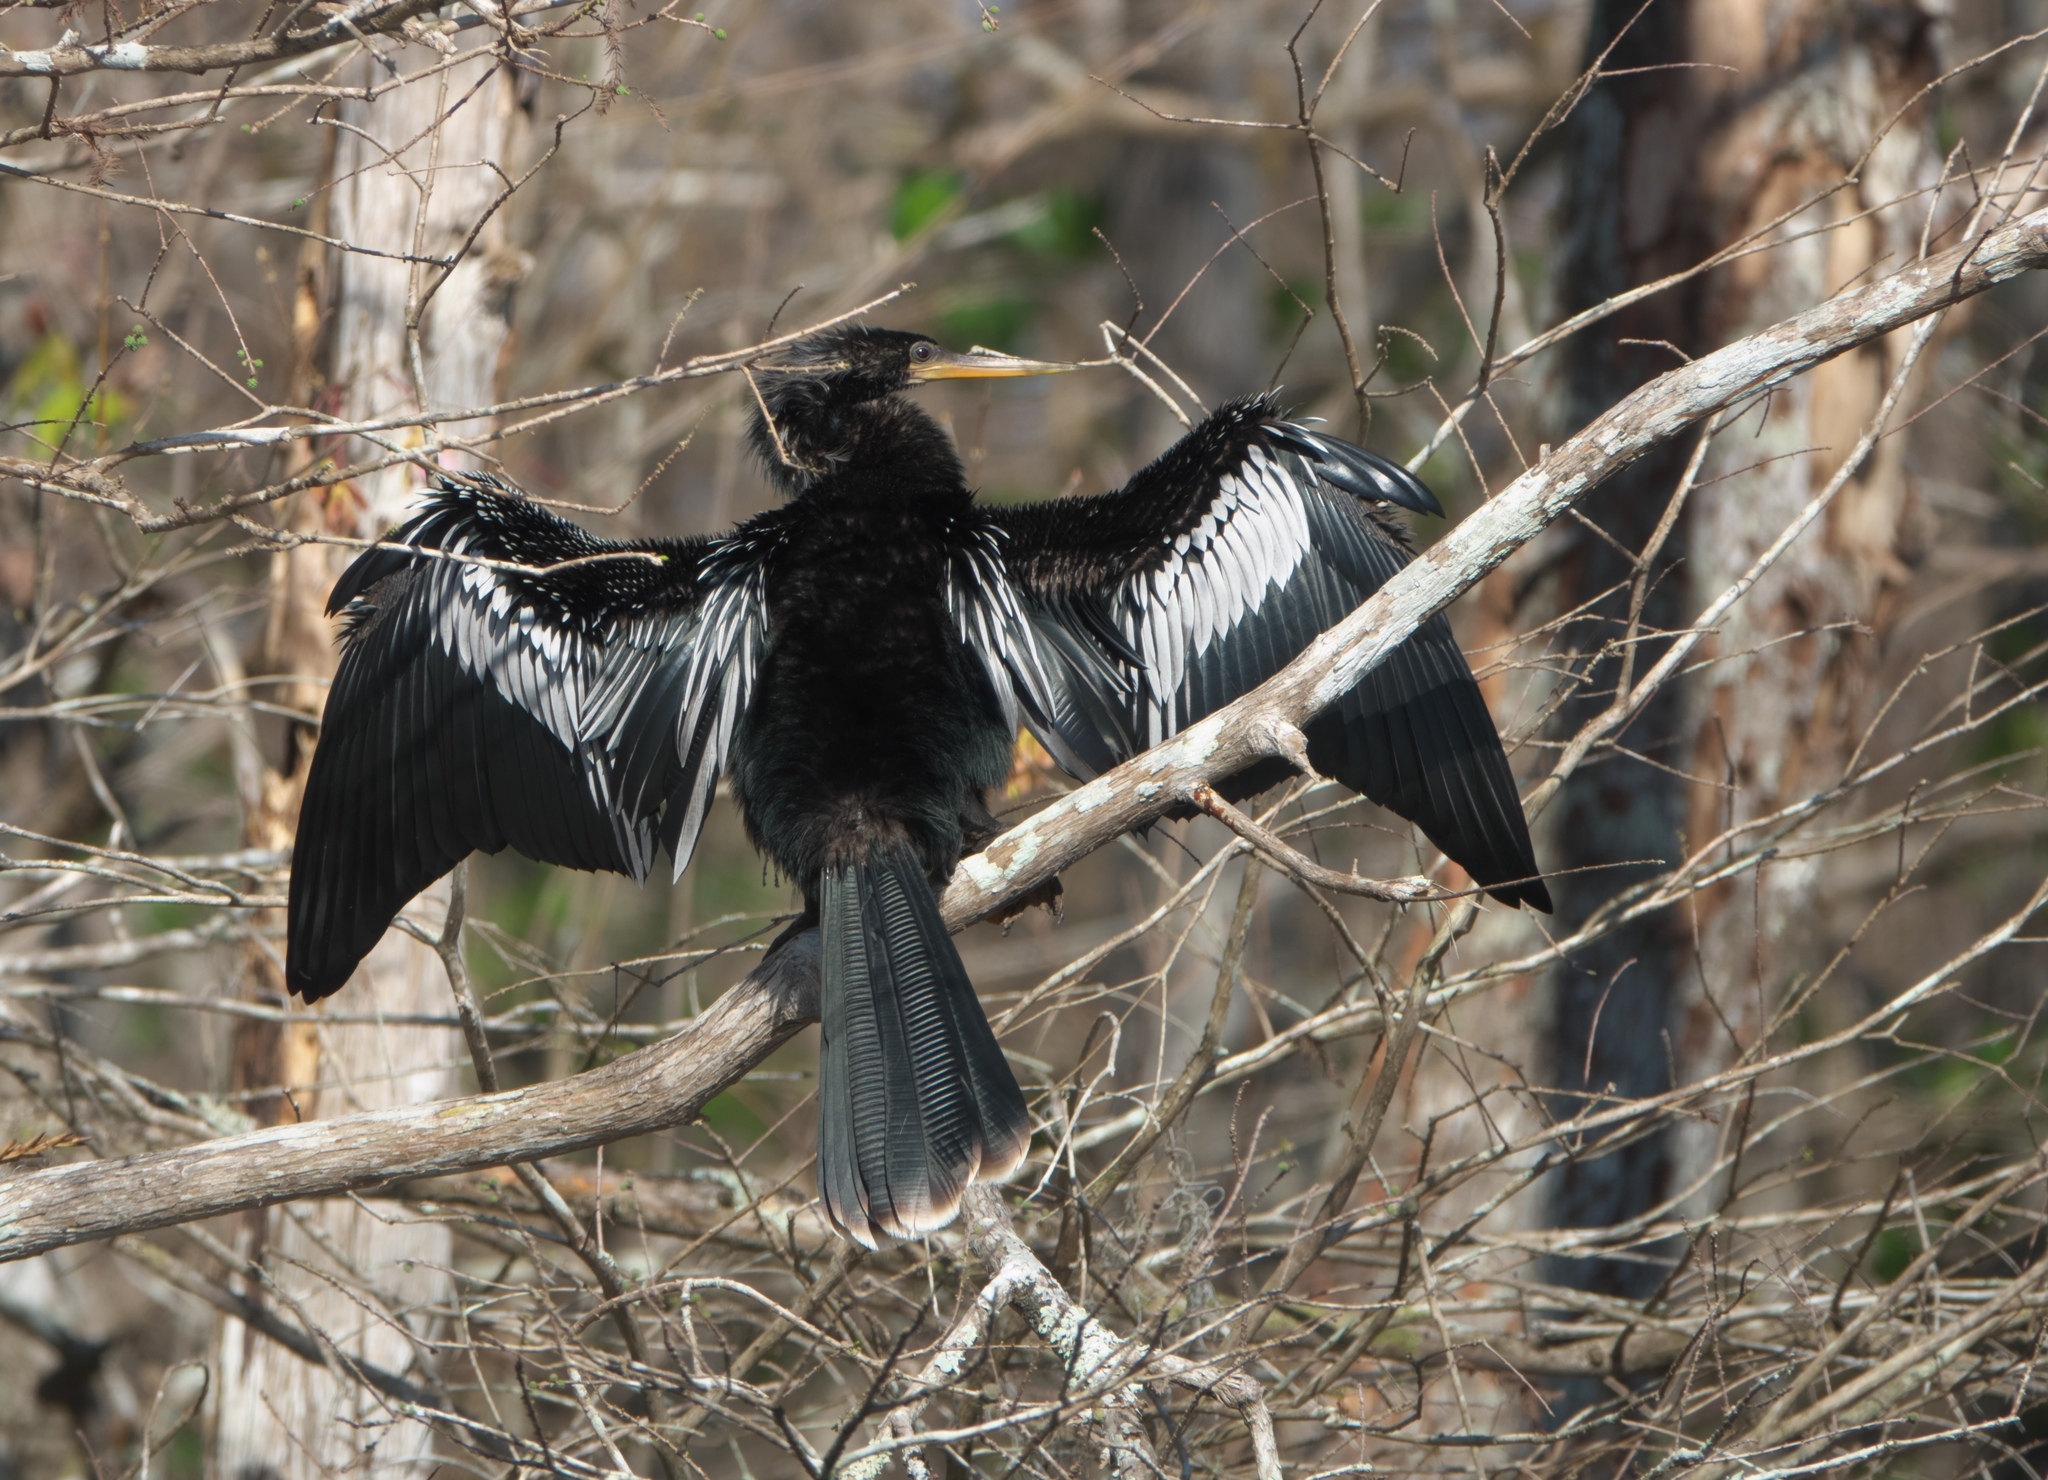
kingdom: Animalia
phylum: Chordata
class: Aves
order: Suliformes
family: Anhingidae
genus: Anhinga
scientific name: Anhinga anhinga
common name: Anhinga
